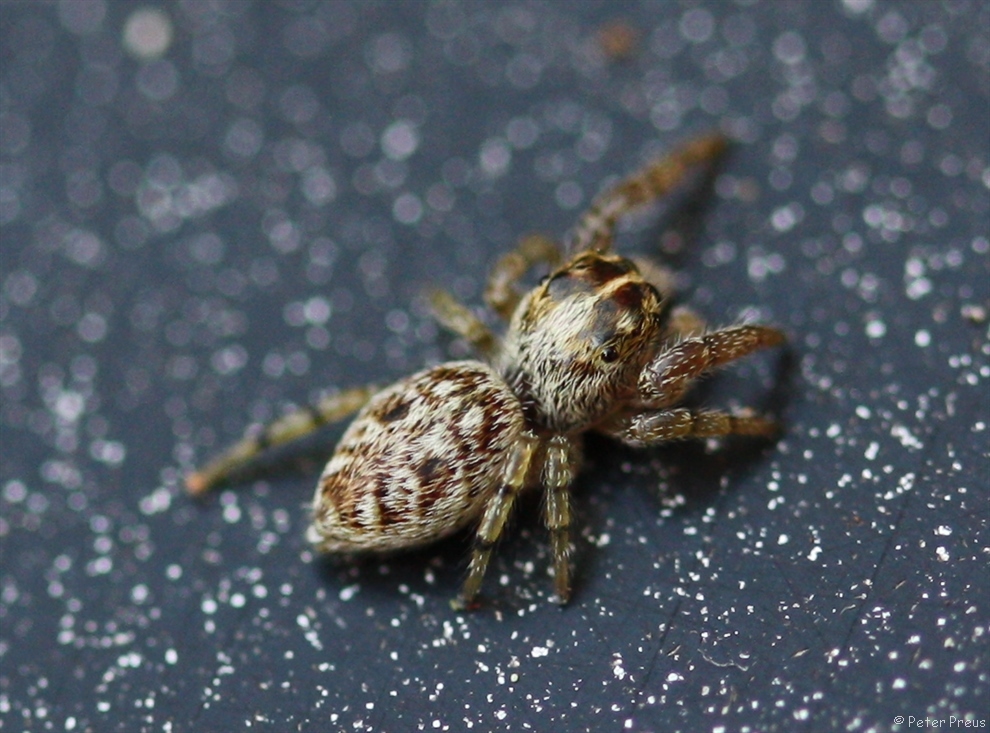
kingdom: Animalia
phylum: Arthropoda
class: Arachnida
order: Araneae
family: Salticidae
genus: Macaroeris
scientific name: Macaroeris nidicolens
